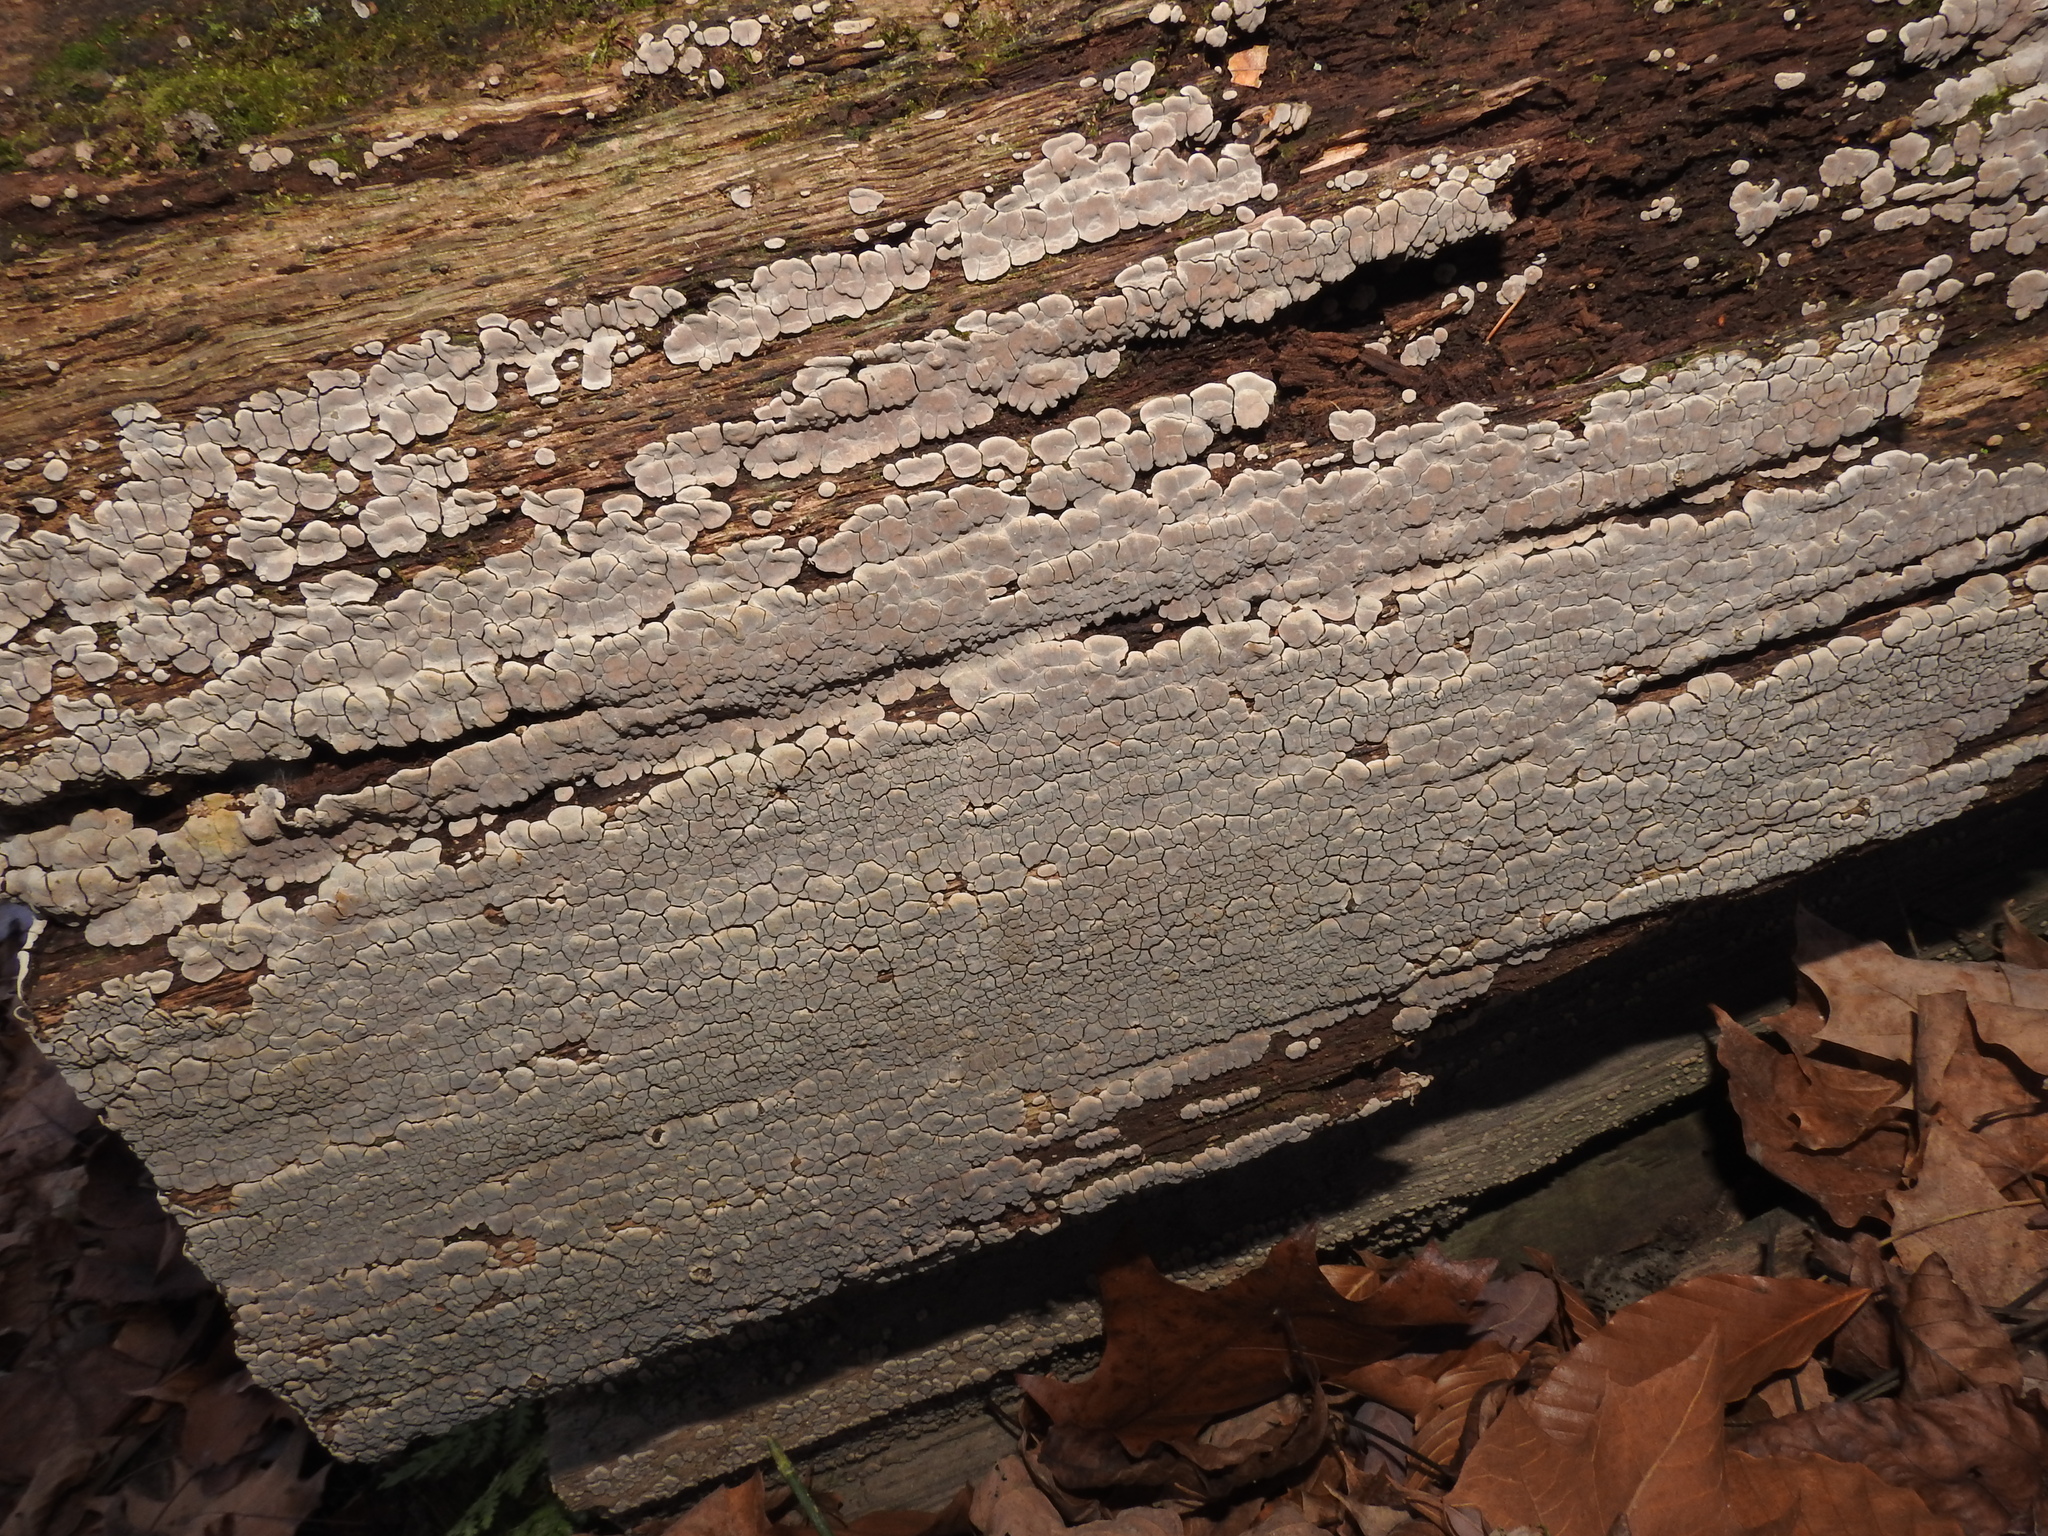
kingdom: Fungi
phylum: Basidiomycota
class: Agaricomycetes
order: Russulales
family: Stereaceae
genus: Xylobolus
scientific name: Xylobolus frustulatus
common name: Ceramic parchment
